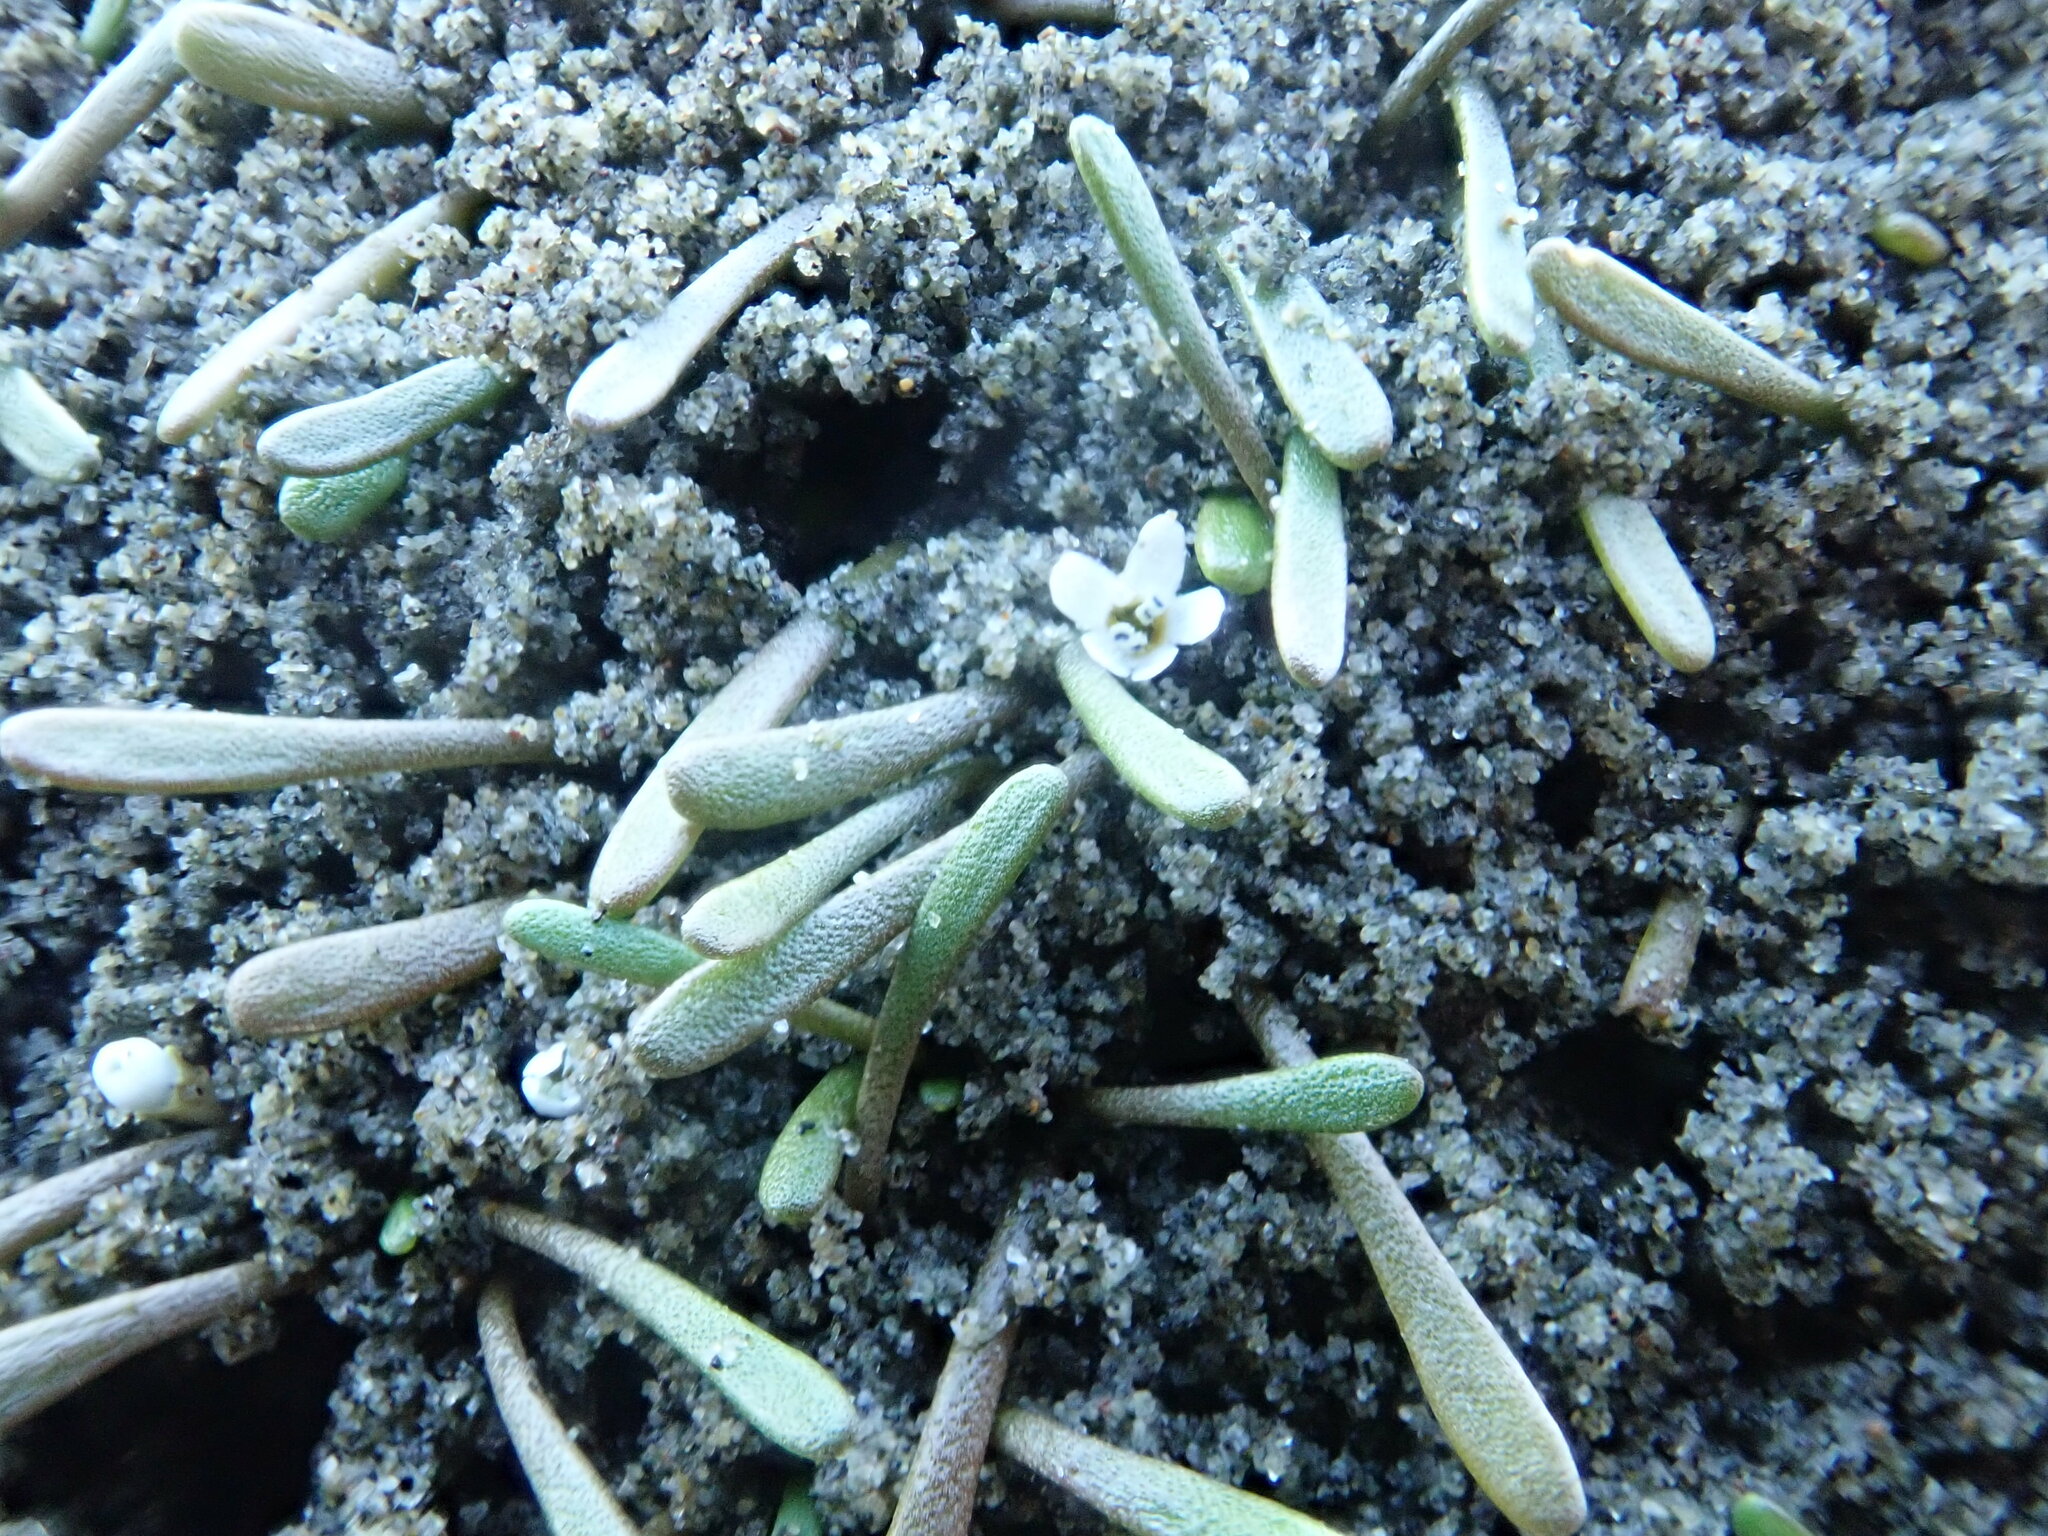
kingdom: Plantae
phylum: Tracheophyta
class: Magnoliopsida
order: Lamiales
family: Scrophulariaceae
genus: Limosella
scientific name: Limosella australis
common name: Welsh mudwort
